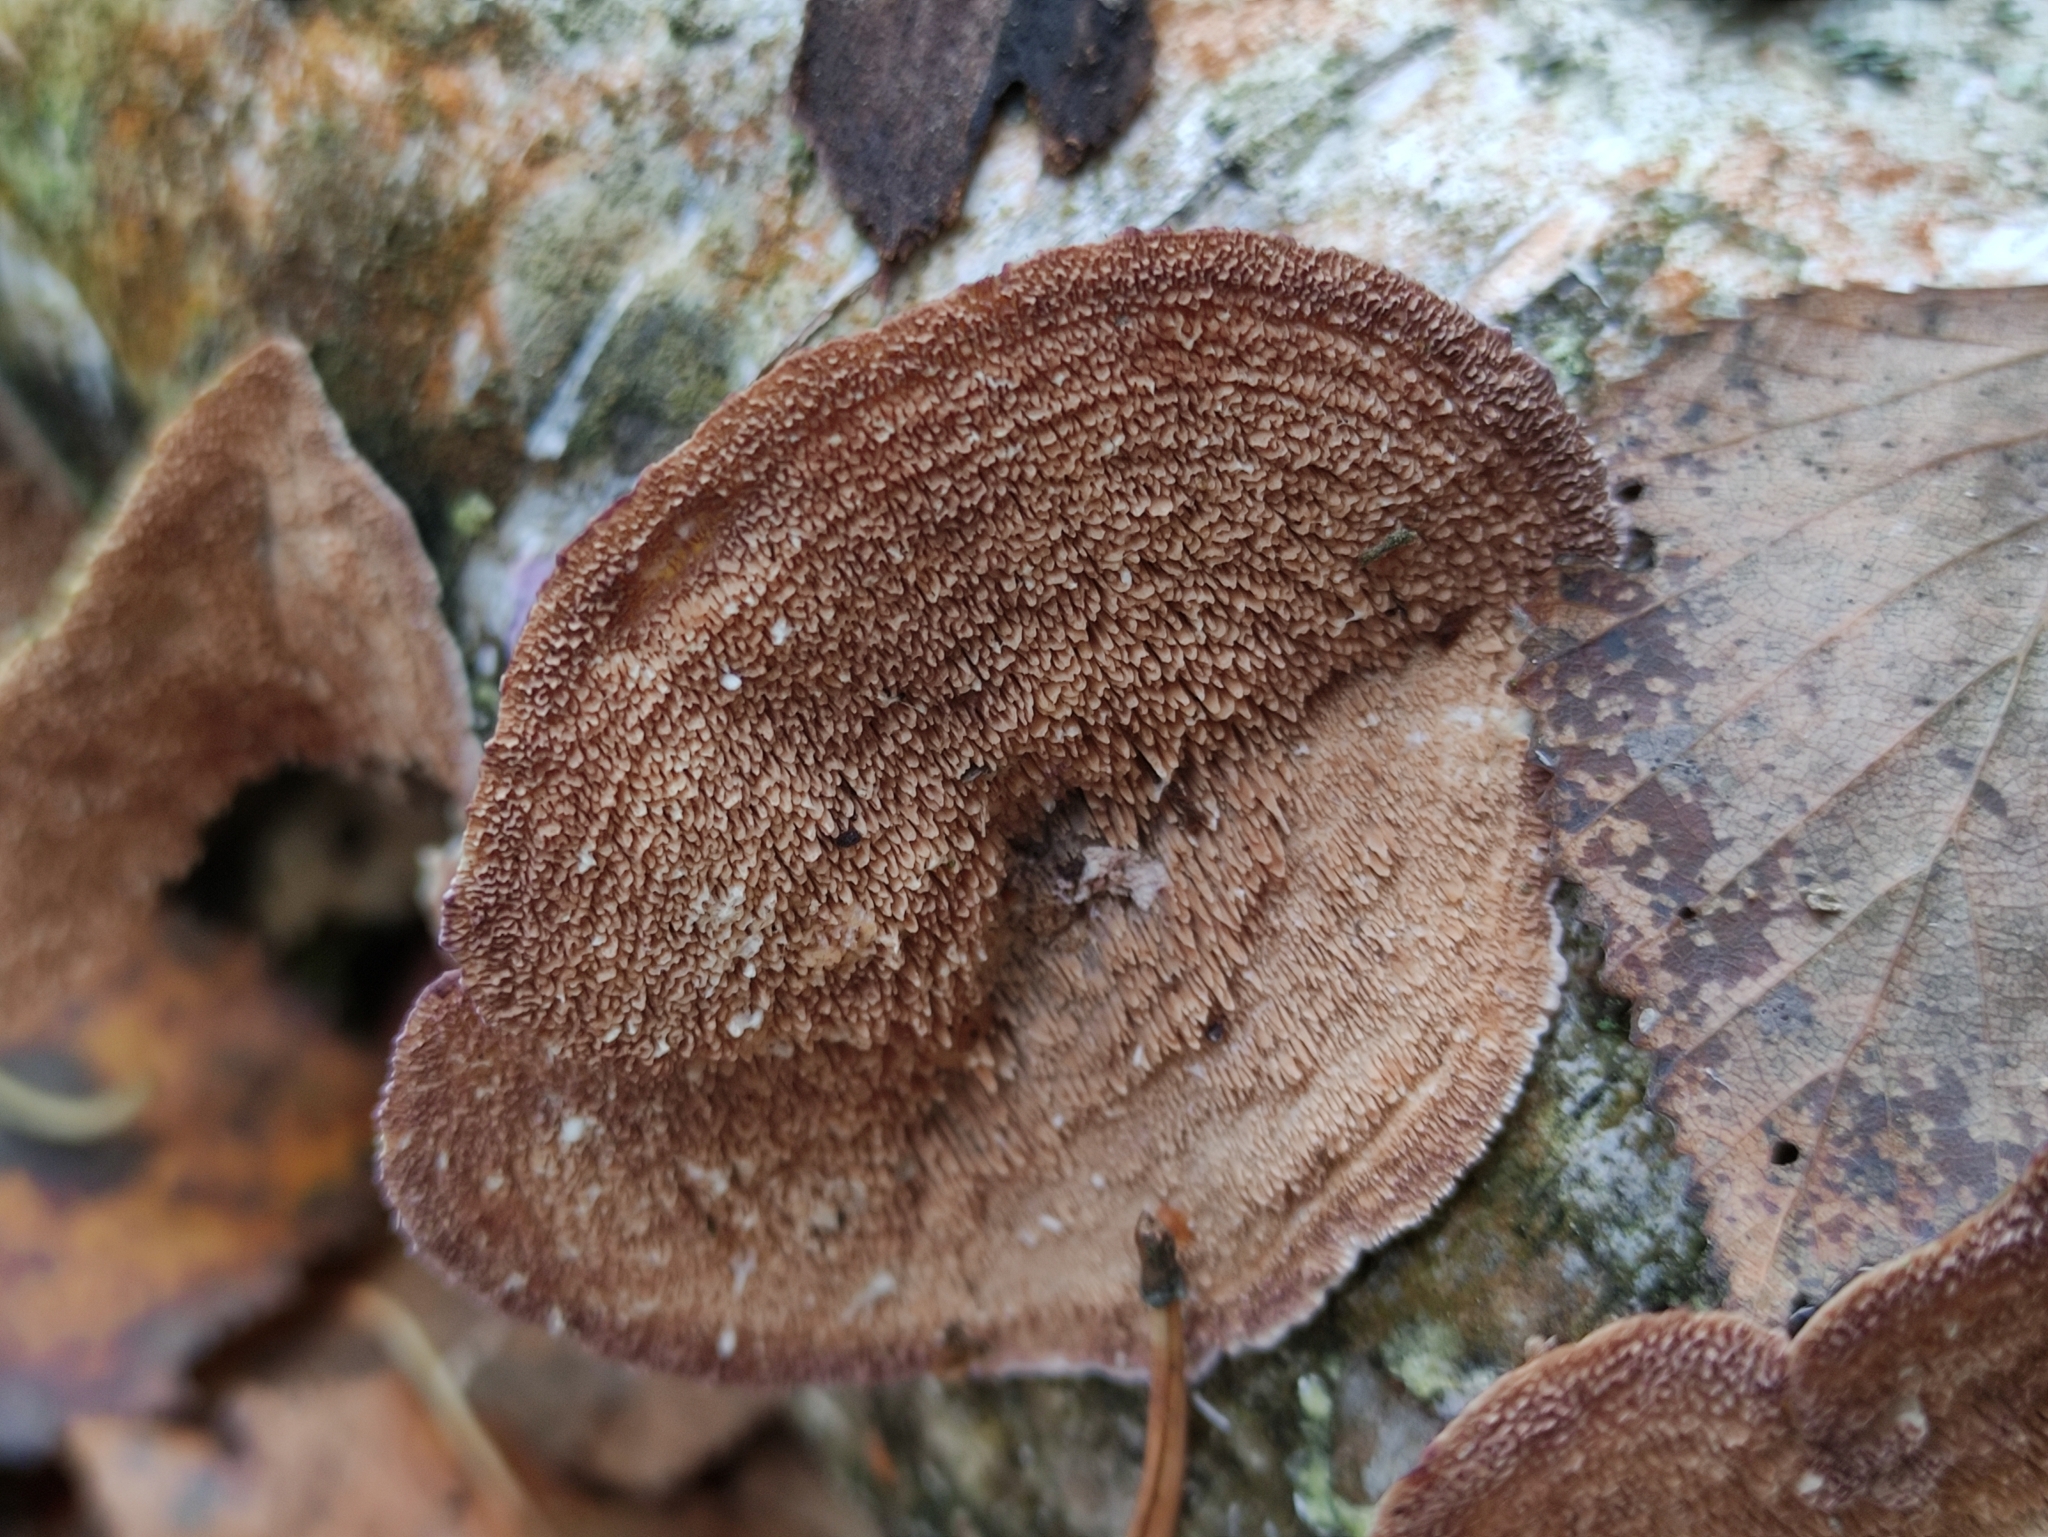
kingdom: Fungi
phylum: Basidiomycota
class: Agaricomycetes
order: Hymenochaetales
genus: Trichaptum
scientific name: Trichaptum biforme
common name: Violet-toothed polypore
